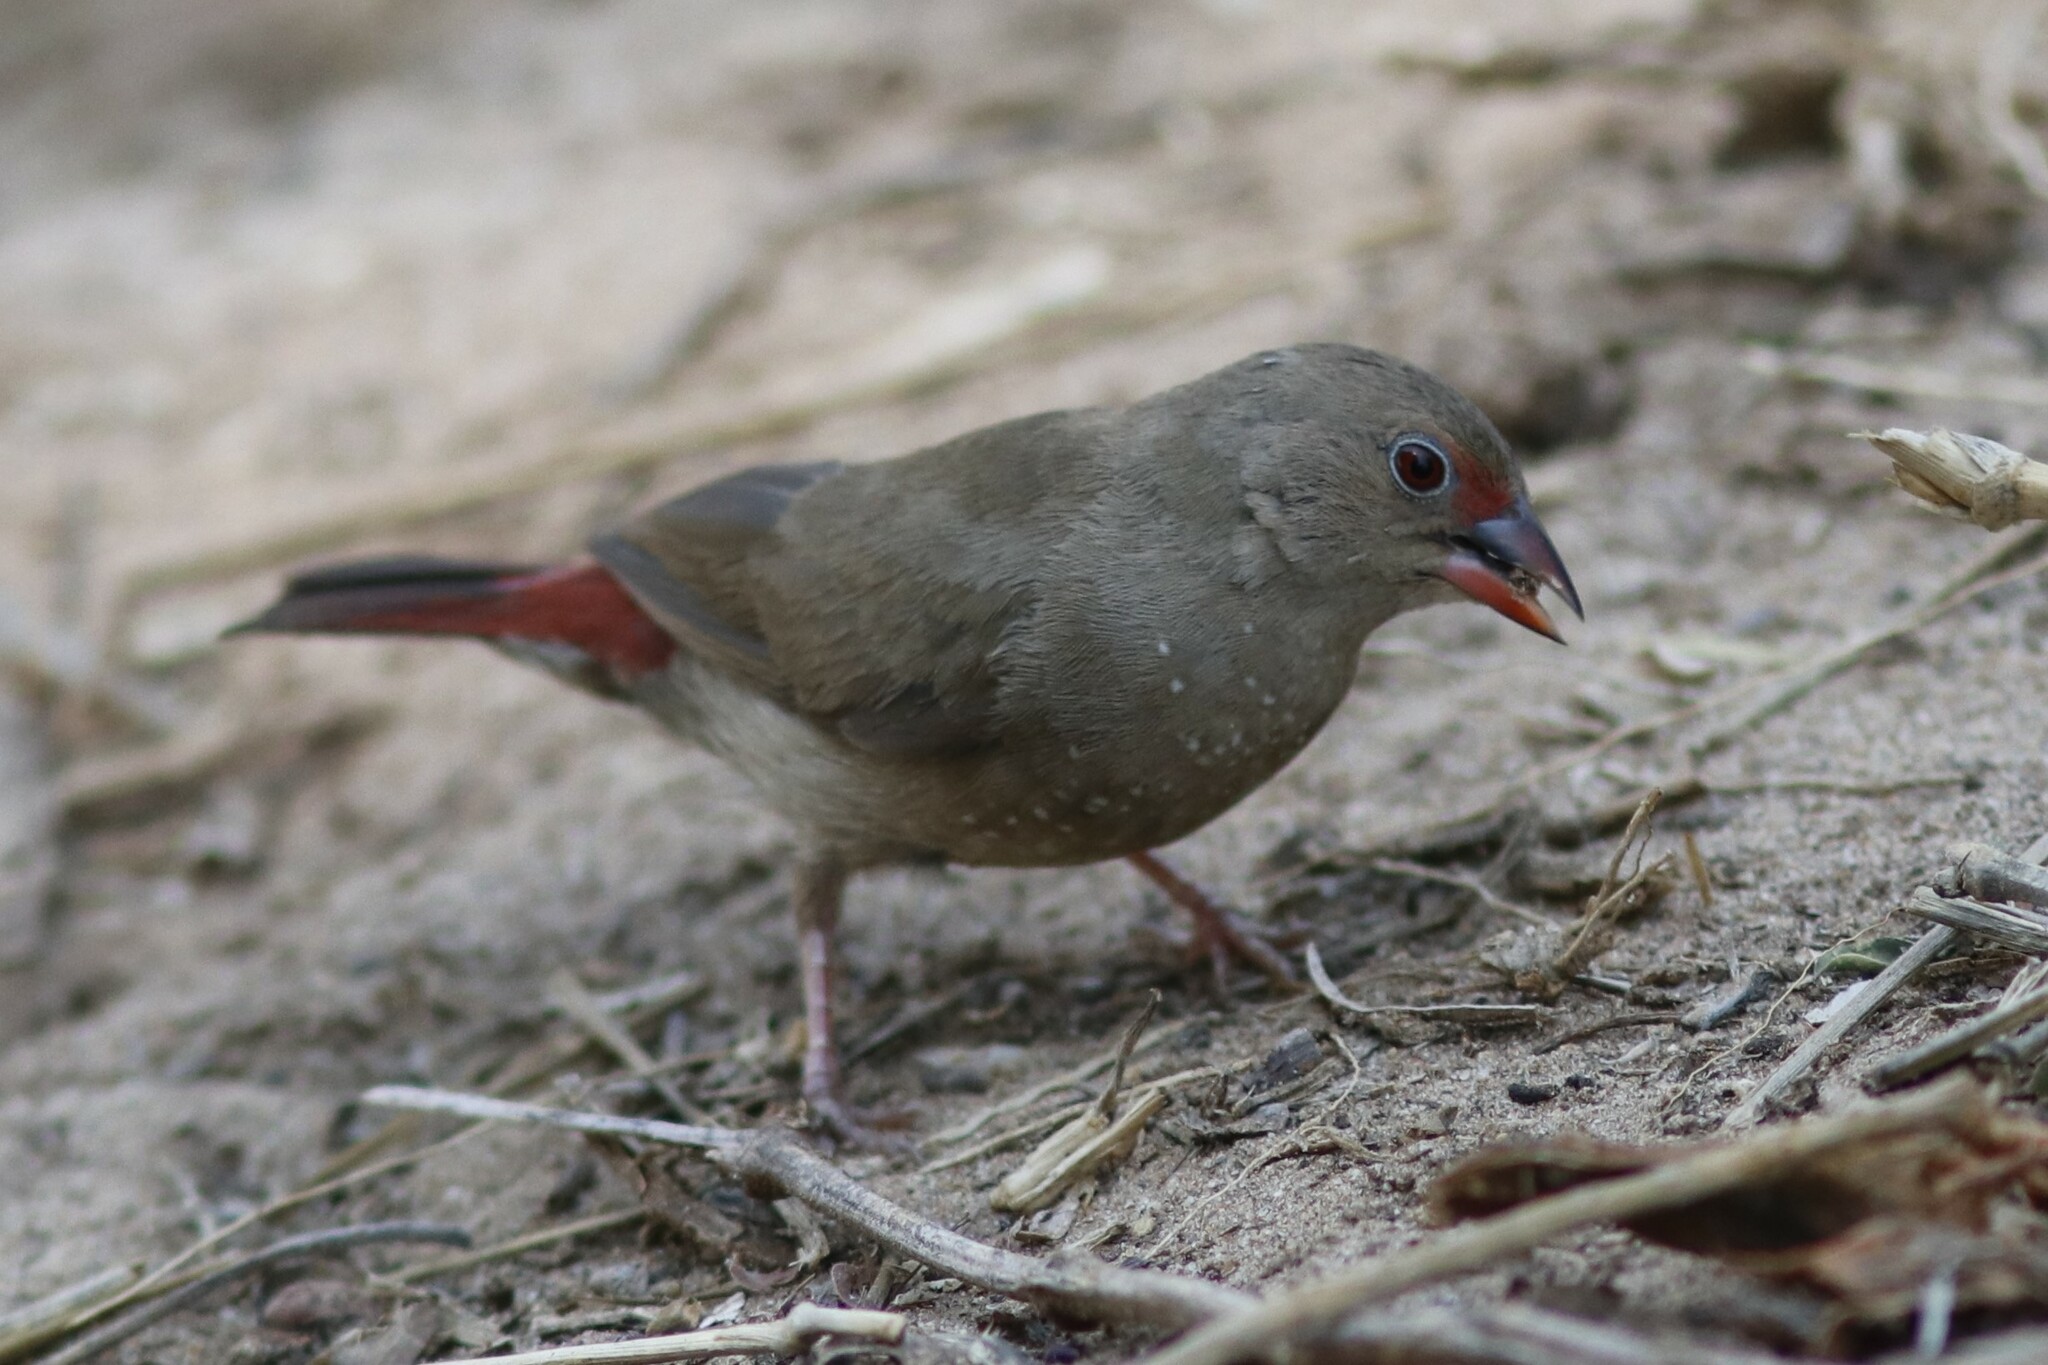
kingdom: Animalia
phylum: Chordata
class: Aves
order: Passeriformes
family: Estrildidae
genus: Lagonosticta
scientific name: Lagonosticta senegala
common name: Red-billed firefinch
